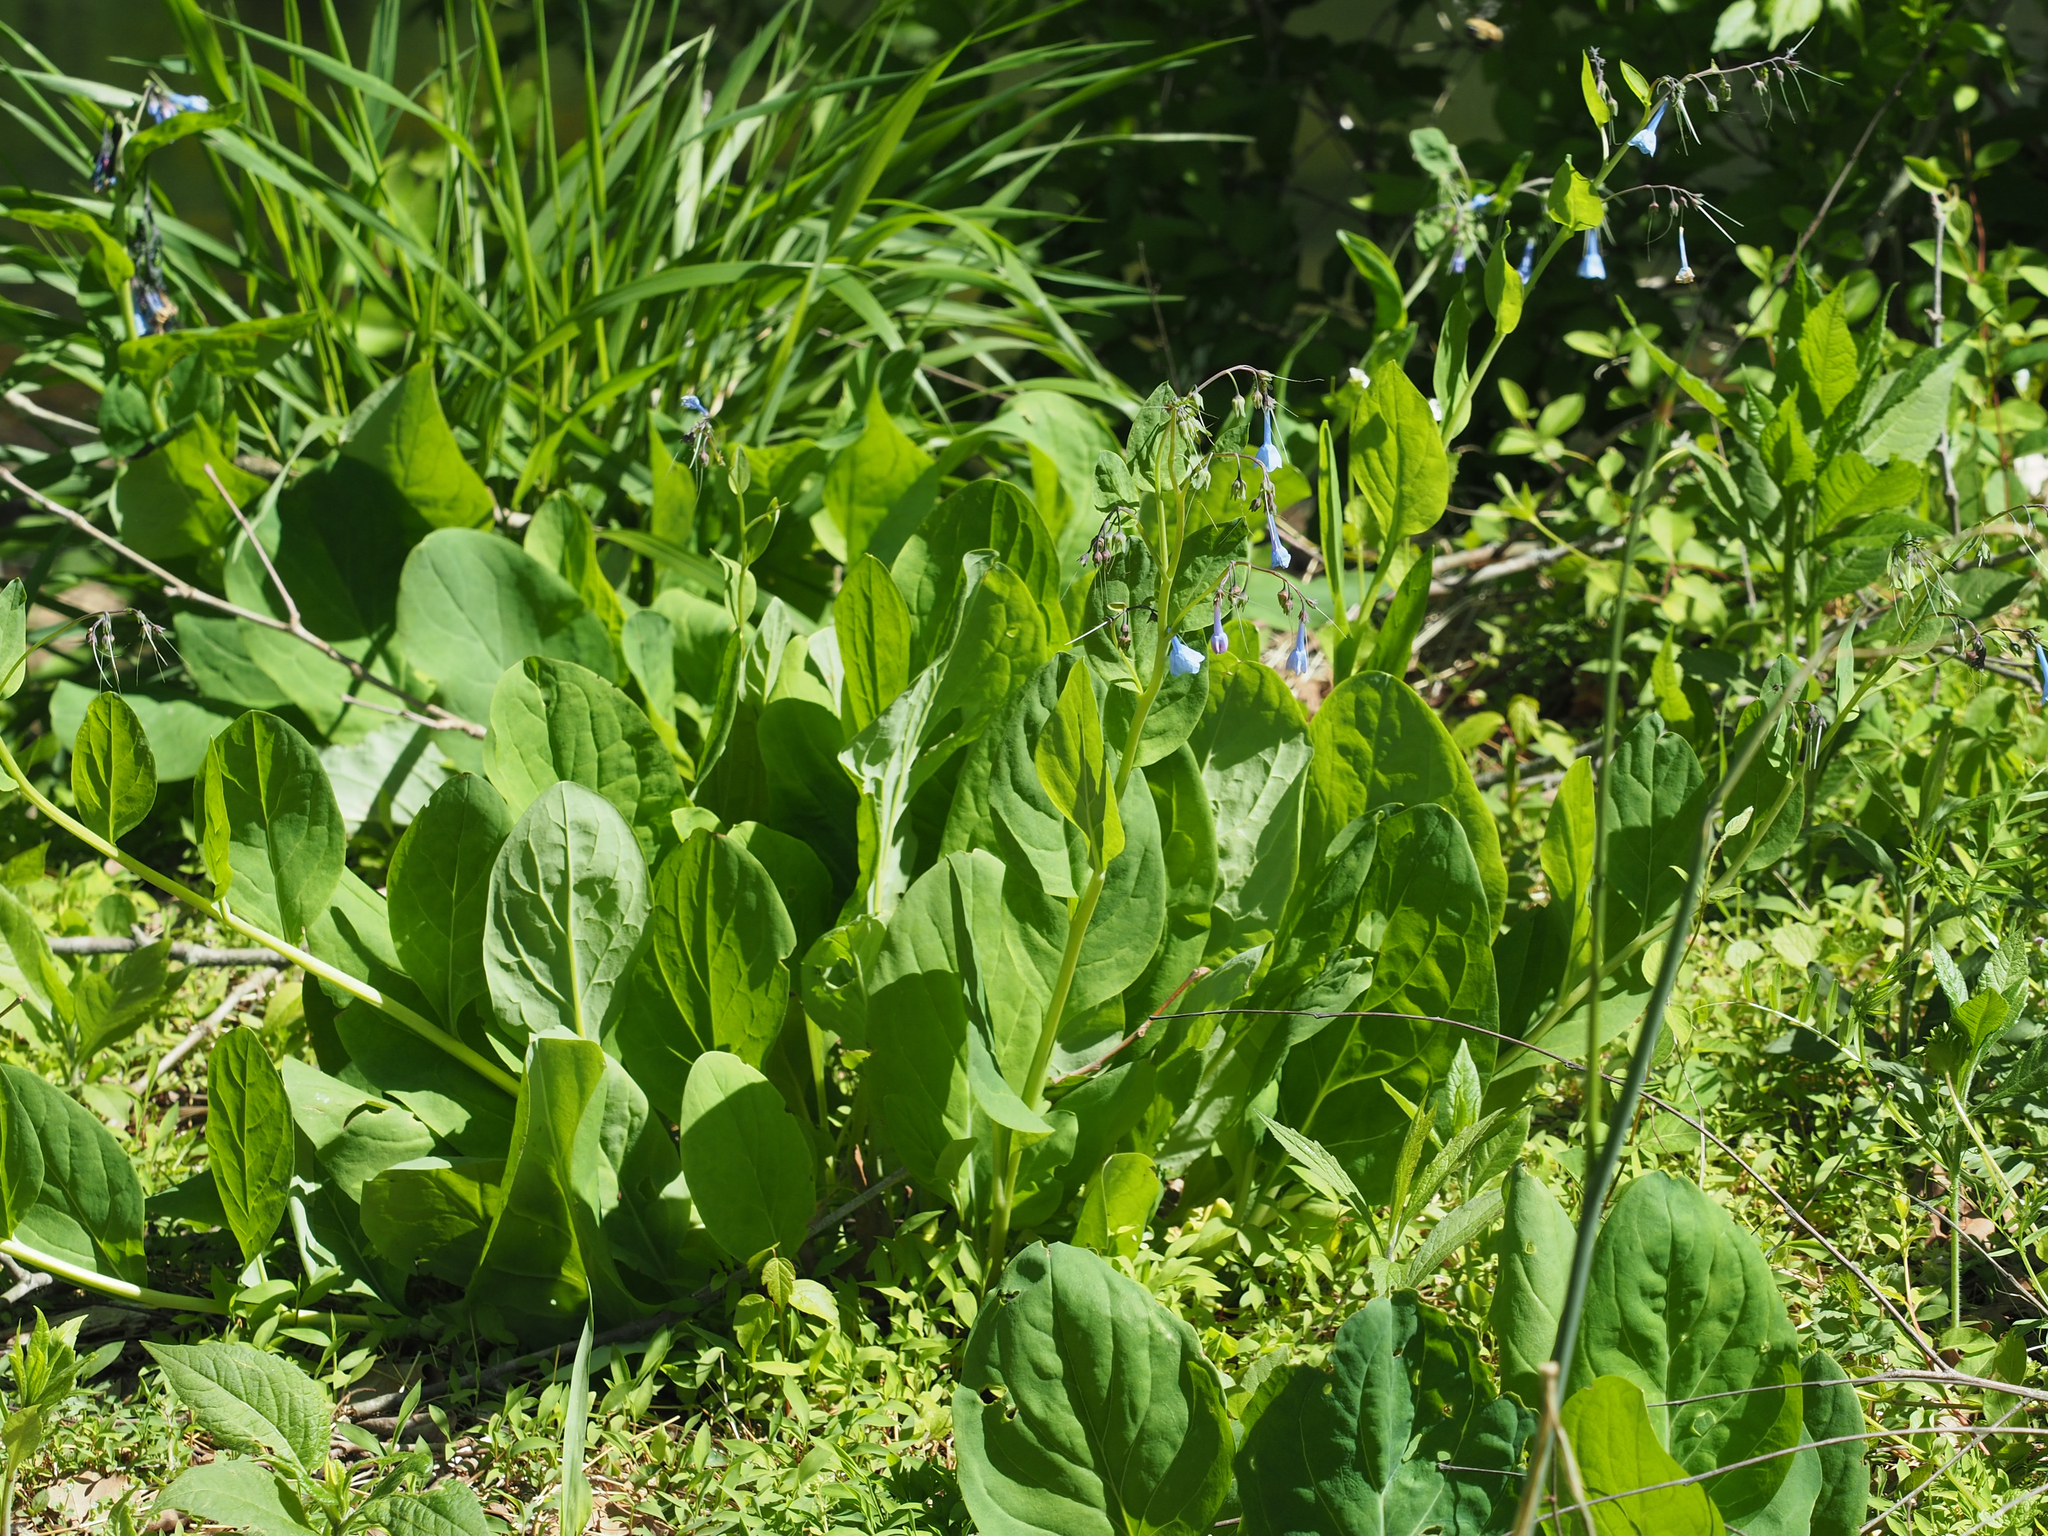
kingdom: Plantae
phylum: Tracheophyta
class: Magnoliopsida
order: Boraginales
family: Boraginaceae
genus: Mertensia
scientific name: Mertensia virginica
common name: Virginia bluebells
